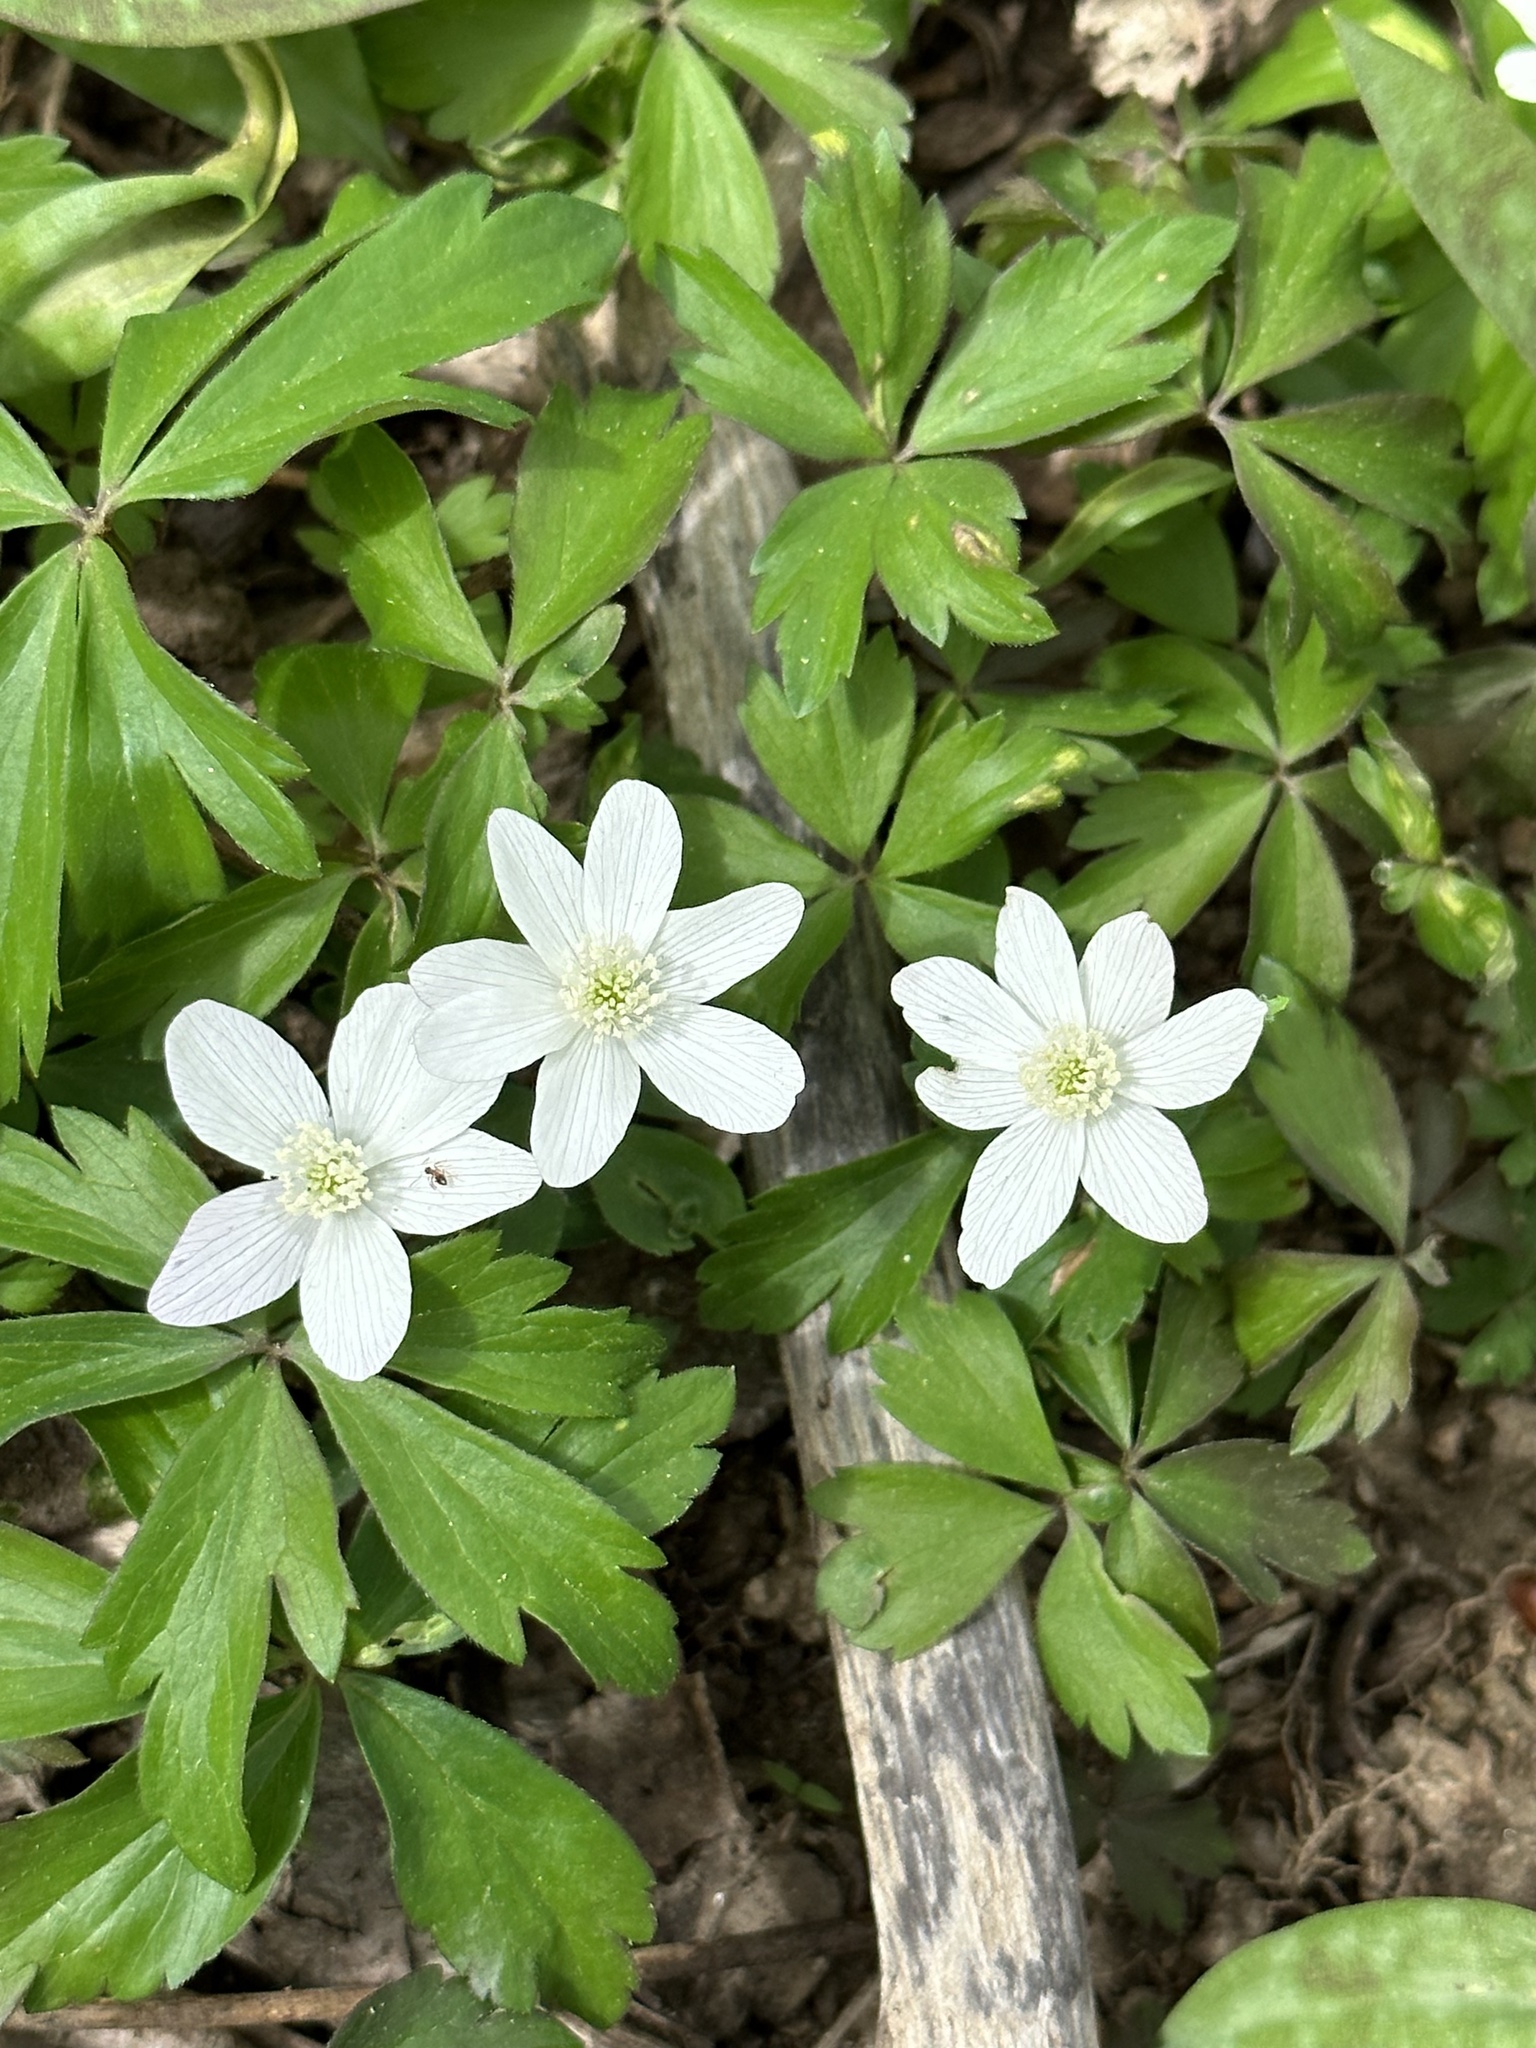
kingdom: Plantae
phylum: Tracheophyta
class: Magnoliopsida
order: Ranunculales
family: Ranunculaceae
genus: Anemone
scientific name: Anemone quinquefolia
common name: Wood anemone
